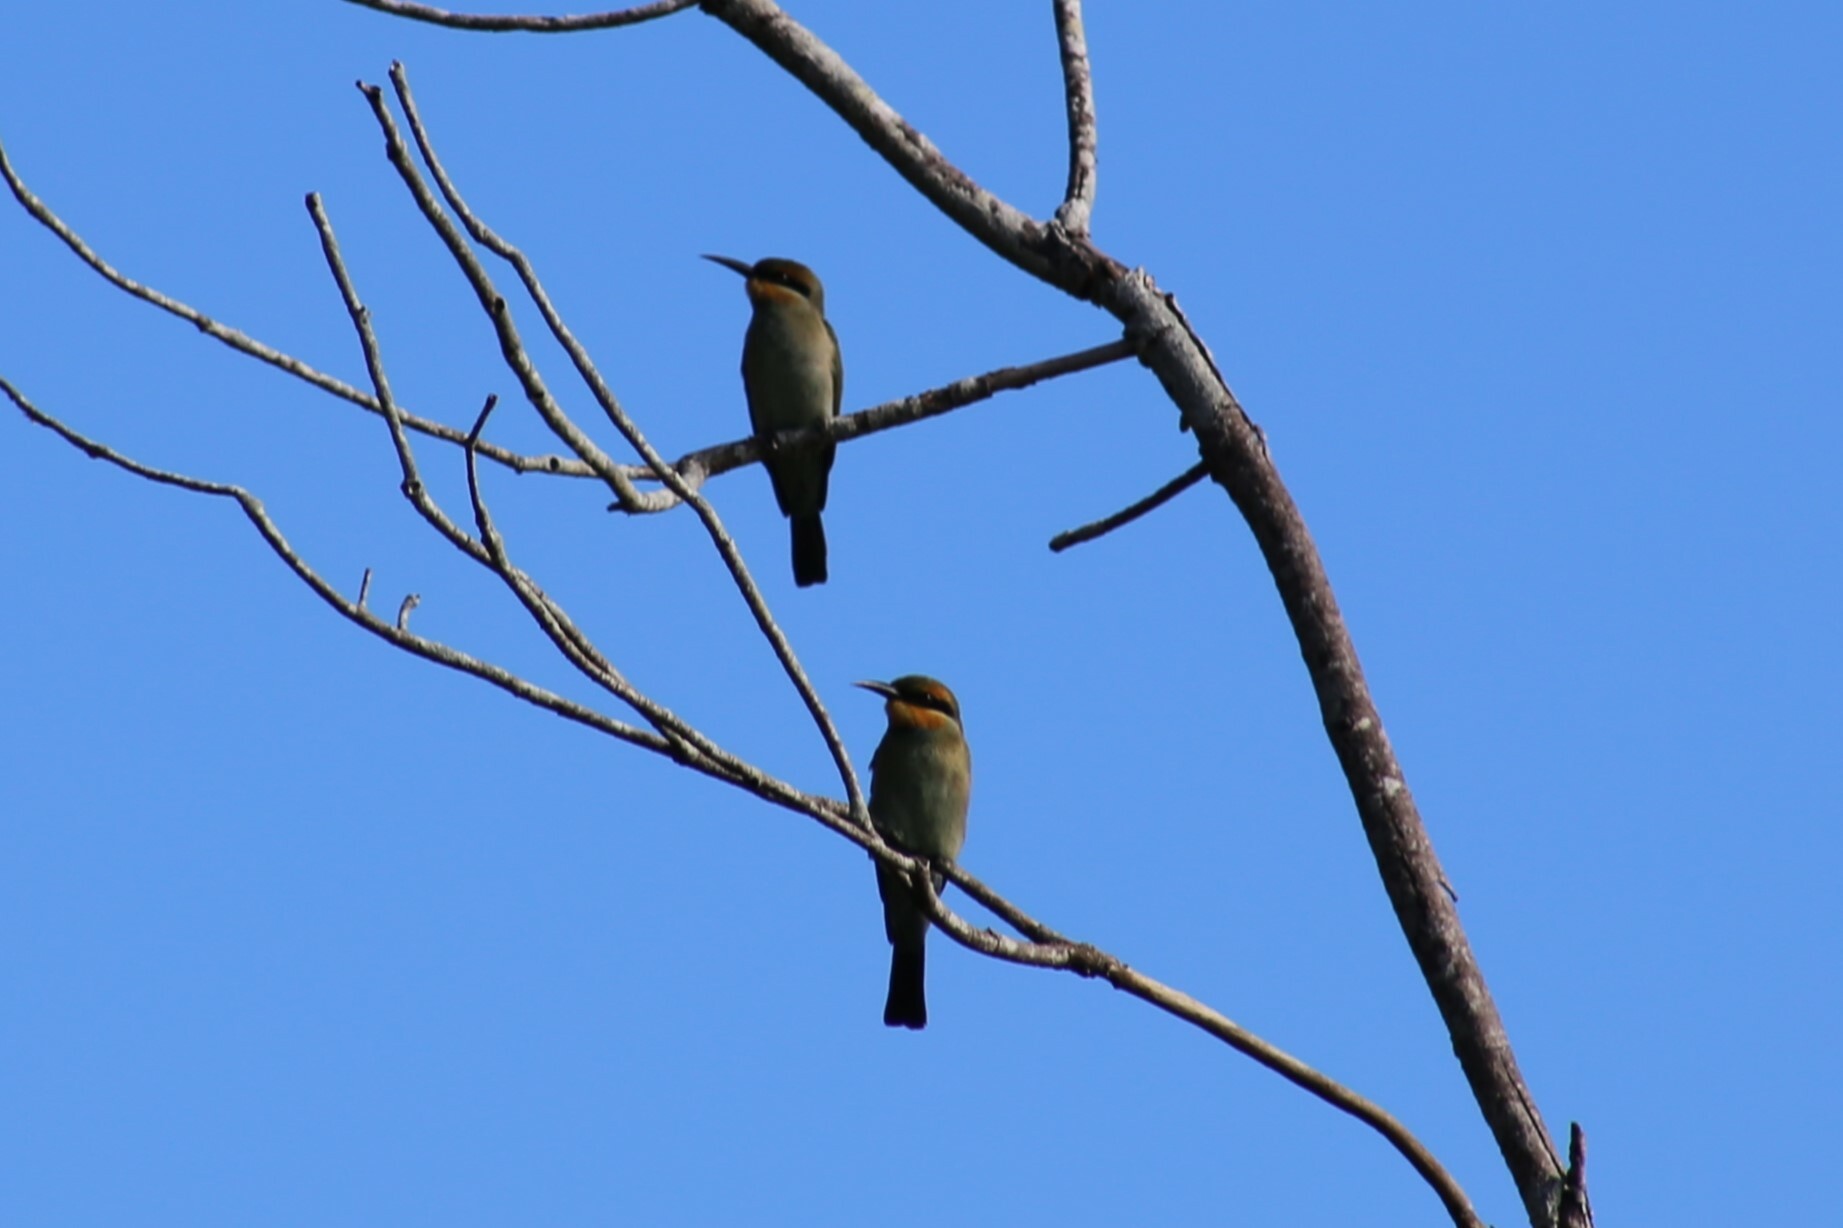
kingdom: Animalia
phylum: Chordata
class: Aves
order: Coraciiformes
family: Meropidae
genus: Merops
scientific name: Merops ornatus
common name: Rainbow bee-eater
